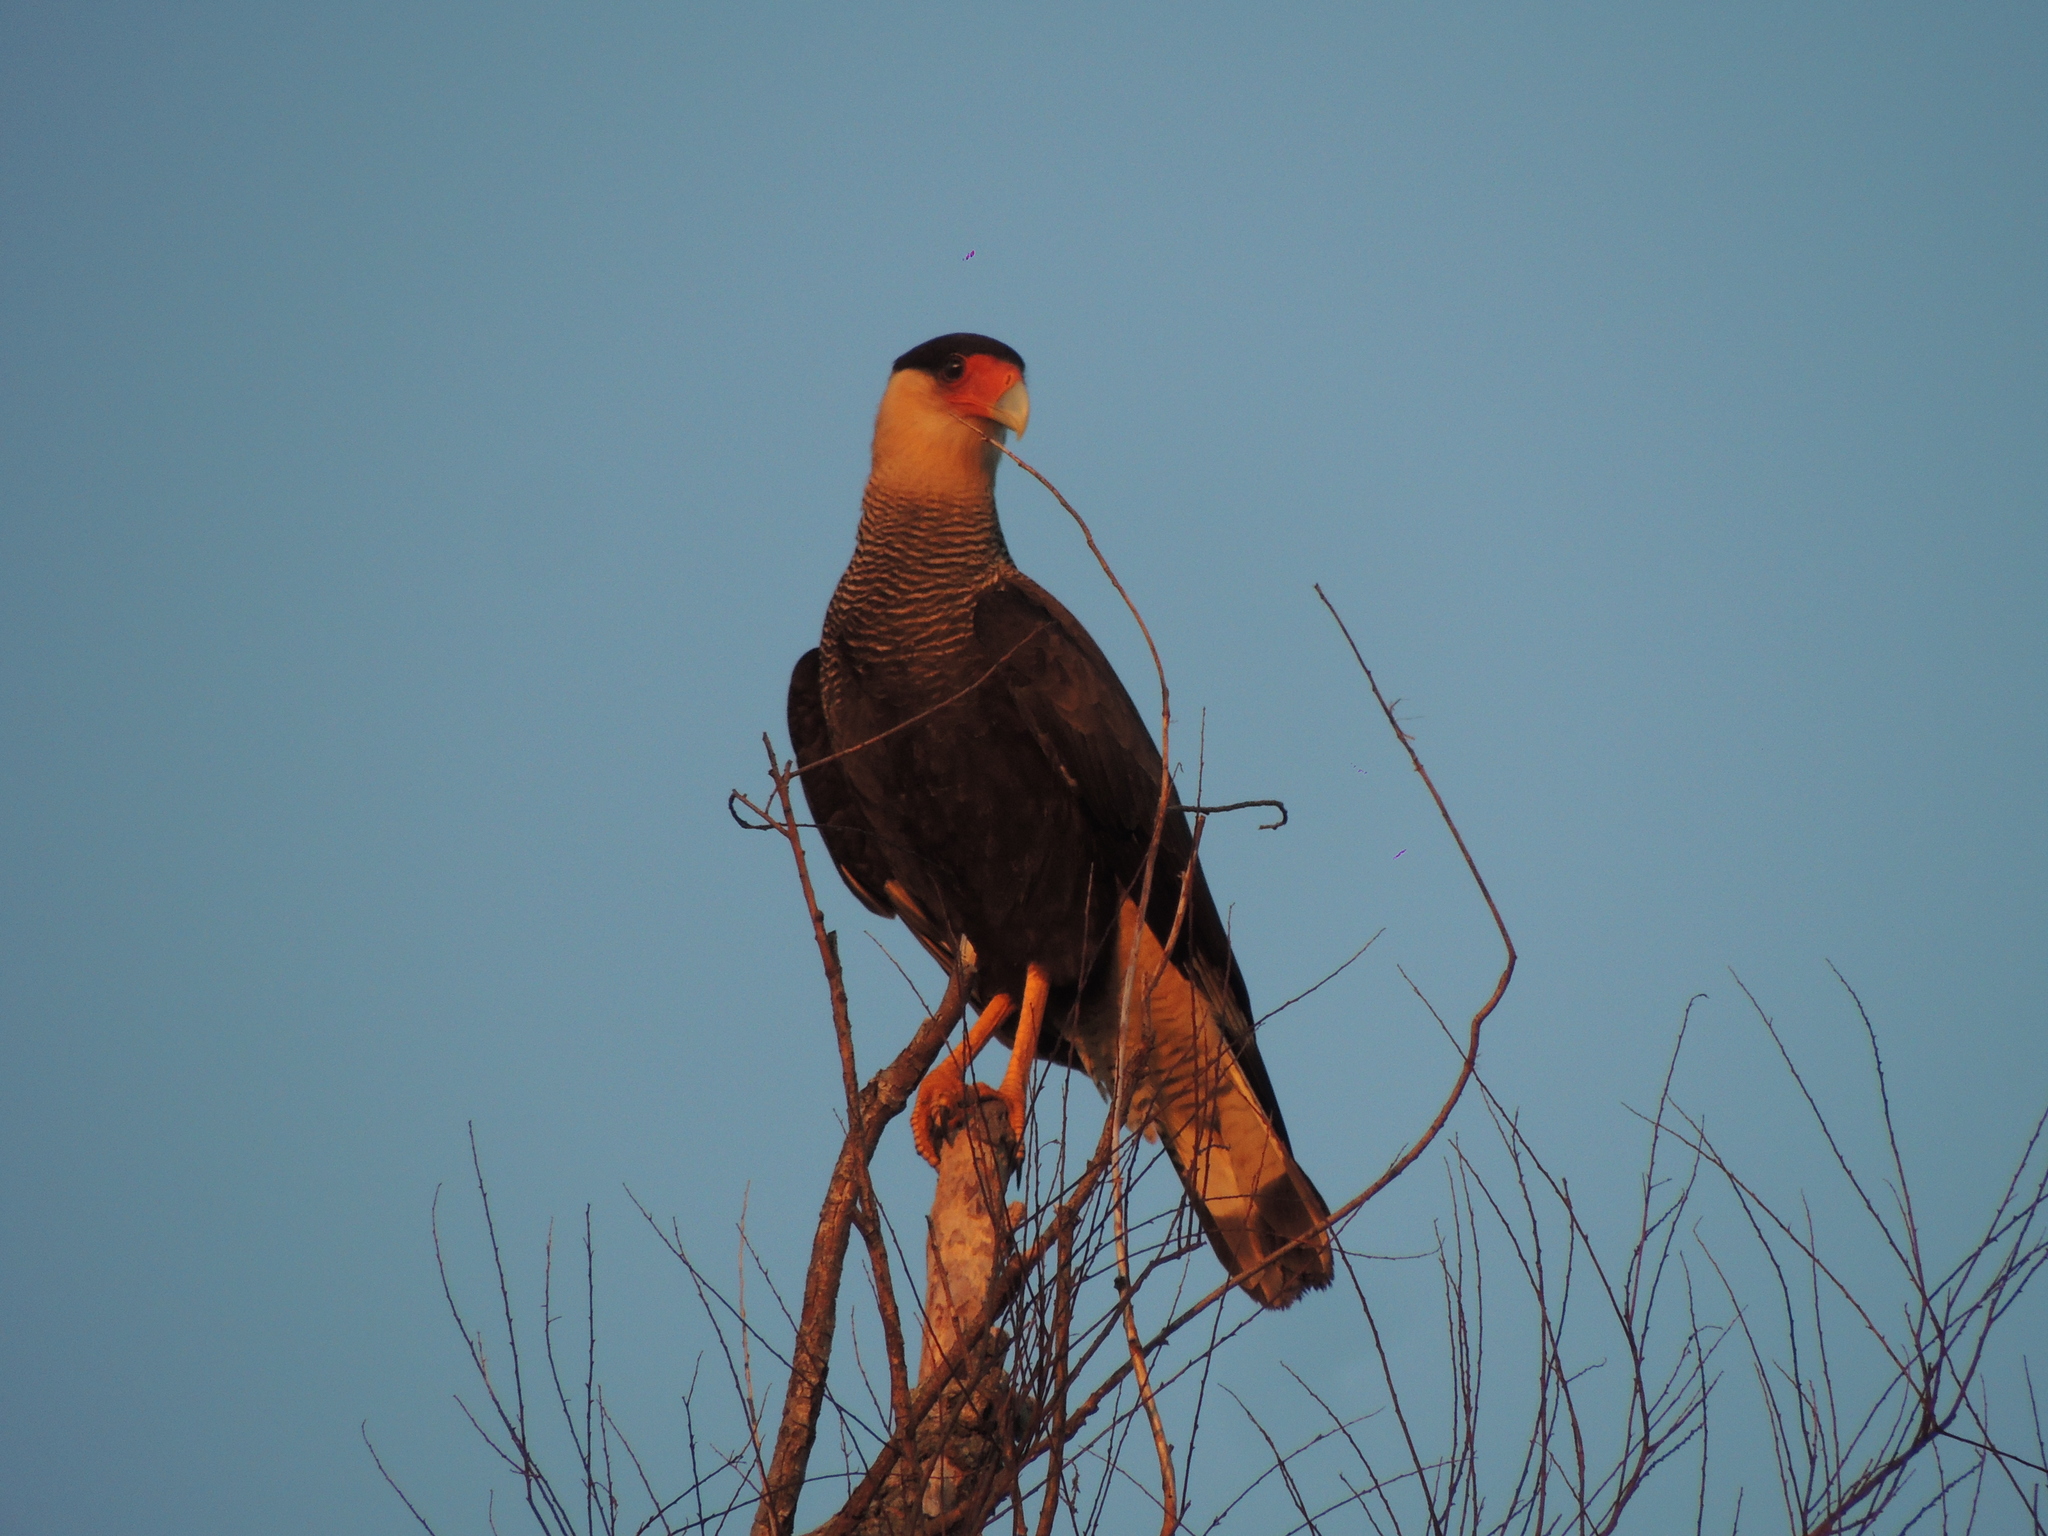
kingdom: Animalia
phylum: Chordata
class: Aves
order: Falconiformes
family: Falconidae
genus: Caracara
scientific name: Caracara plancus
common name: Southern caracara
